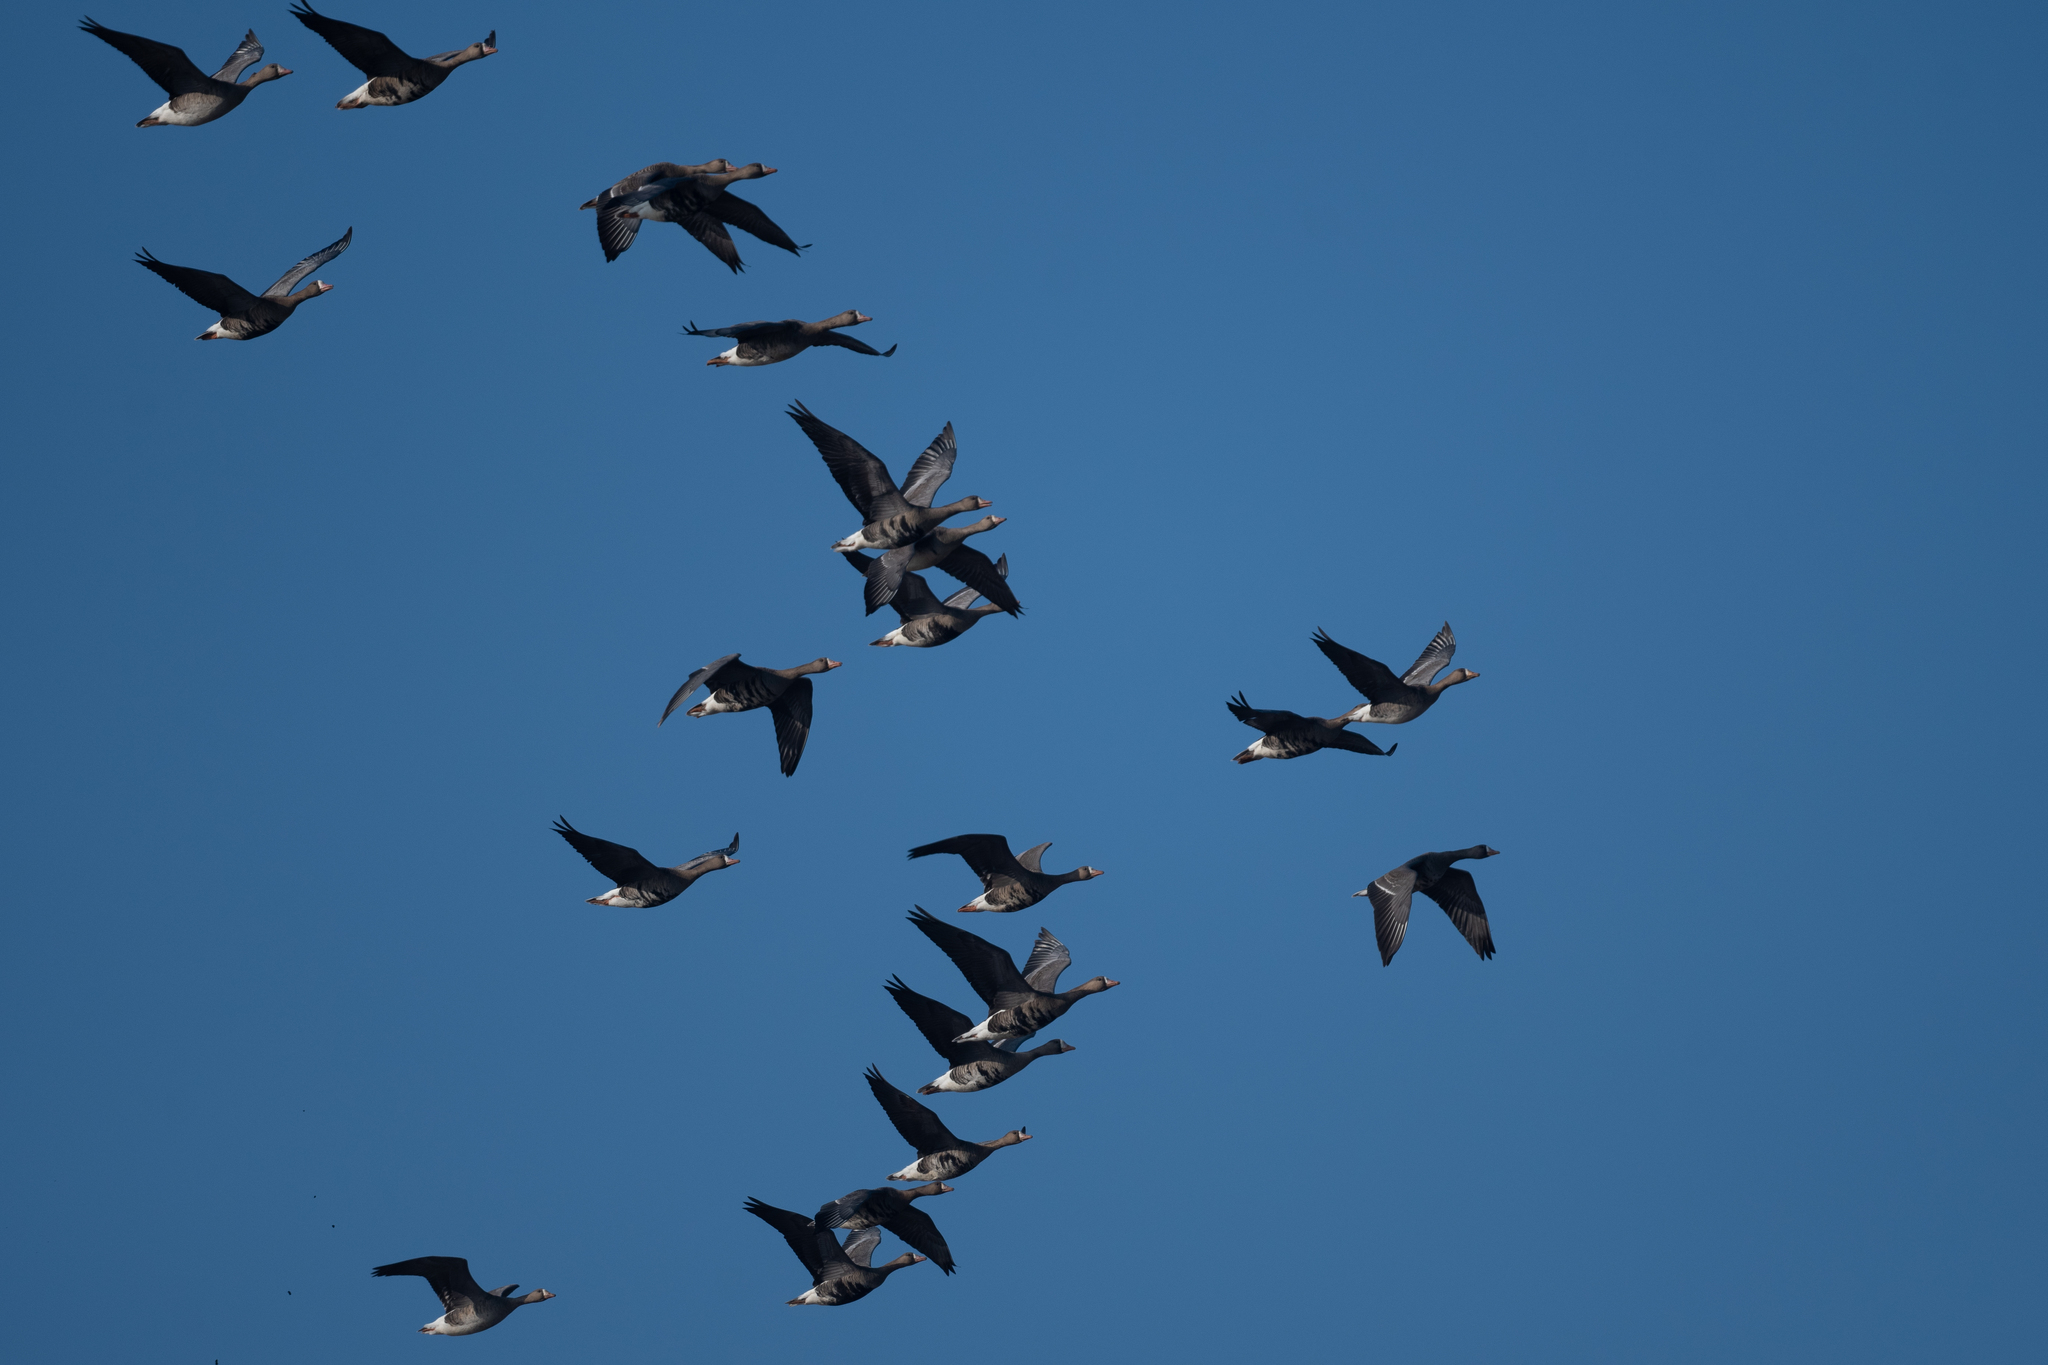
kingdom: Animalia
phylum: Chordata
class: Aves
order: Anseriformes
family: Anatidae
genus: Anser
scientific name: Anser albifrons
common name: Greater white-fronted goose
